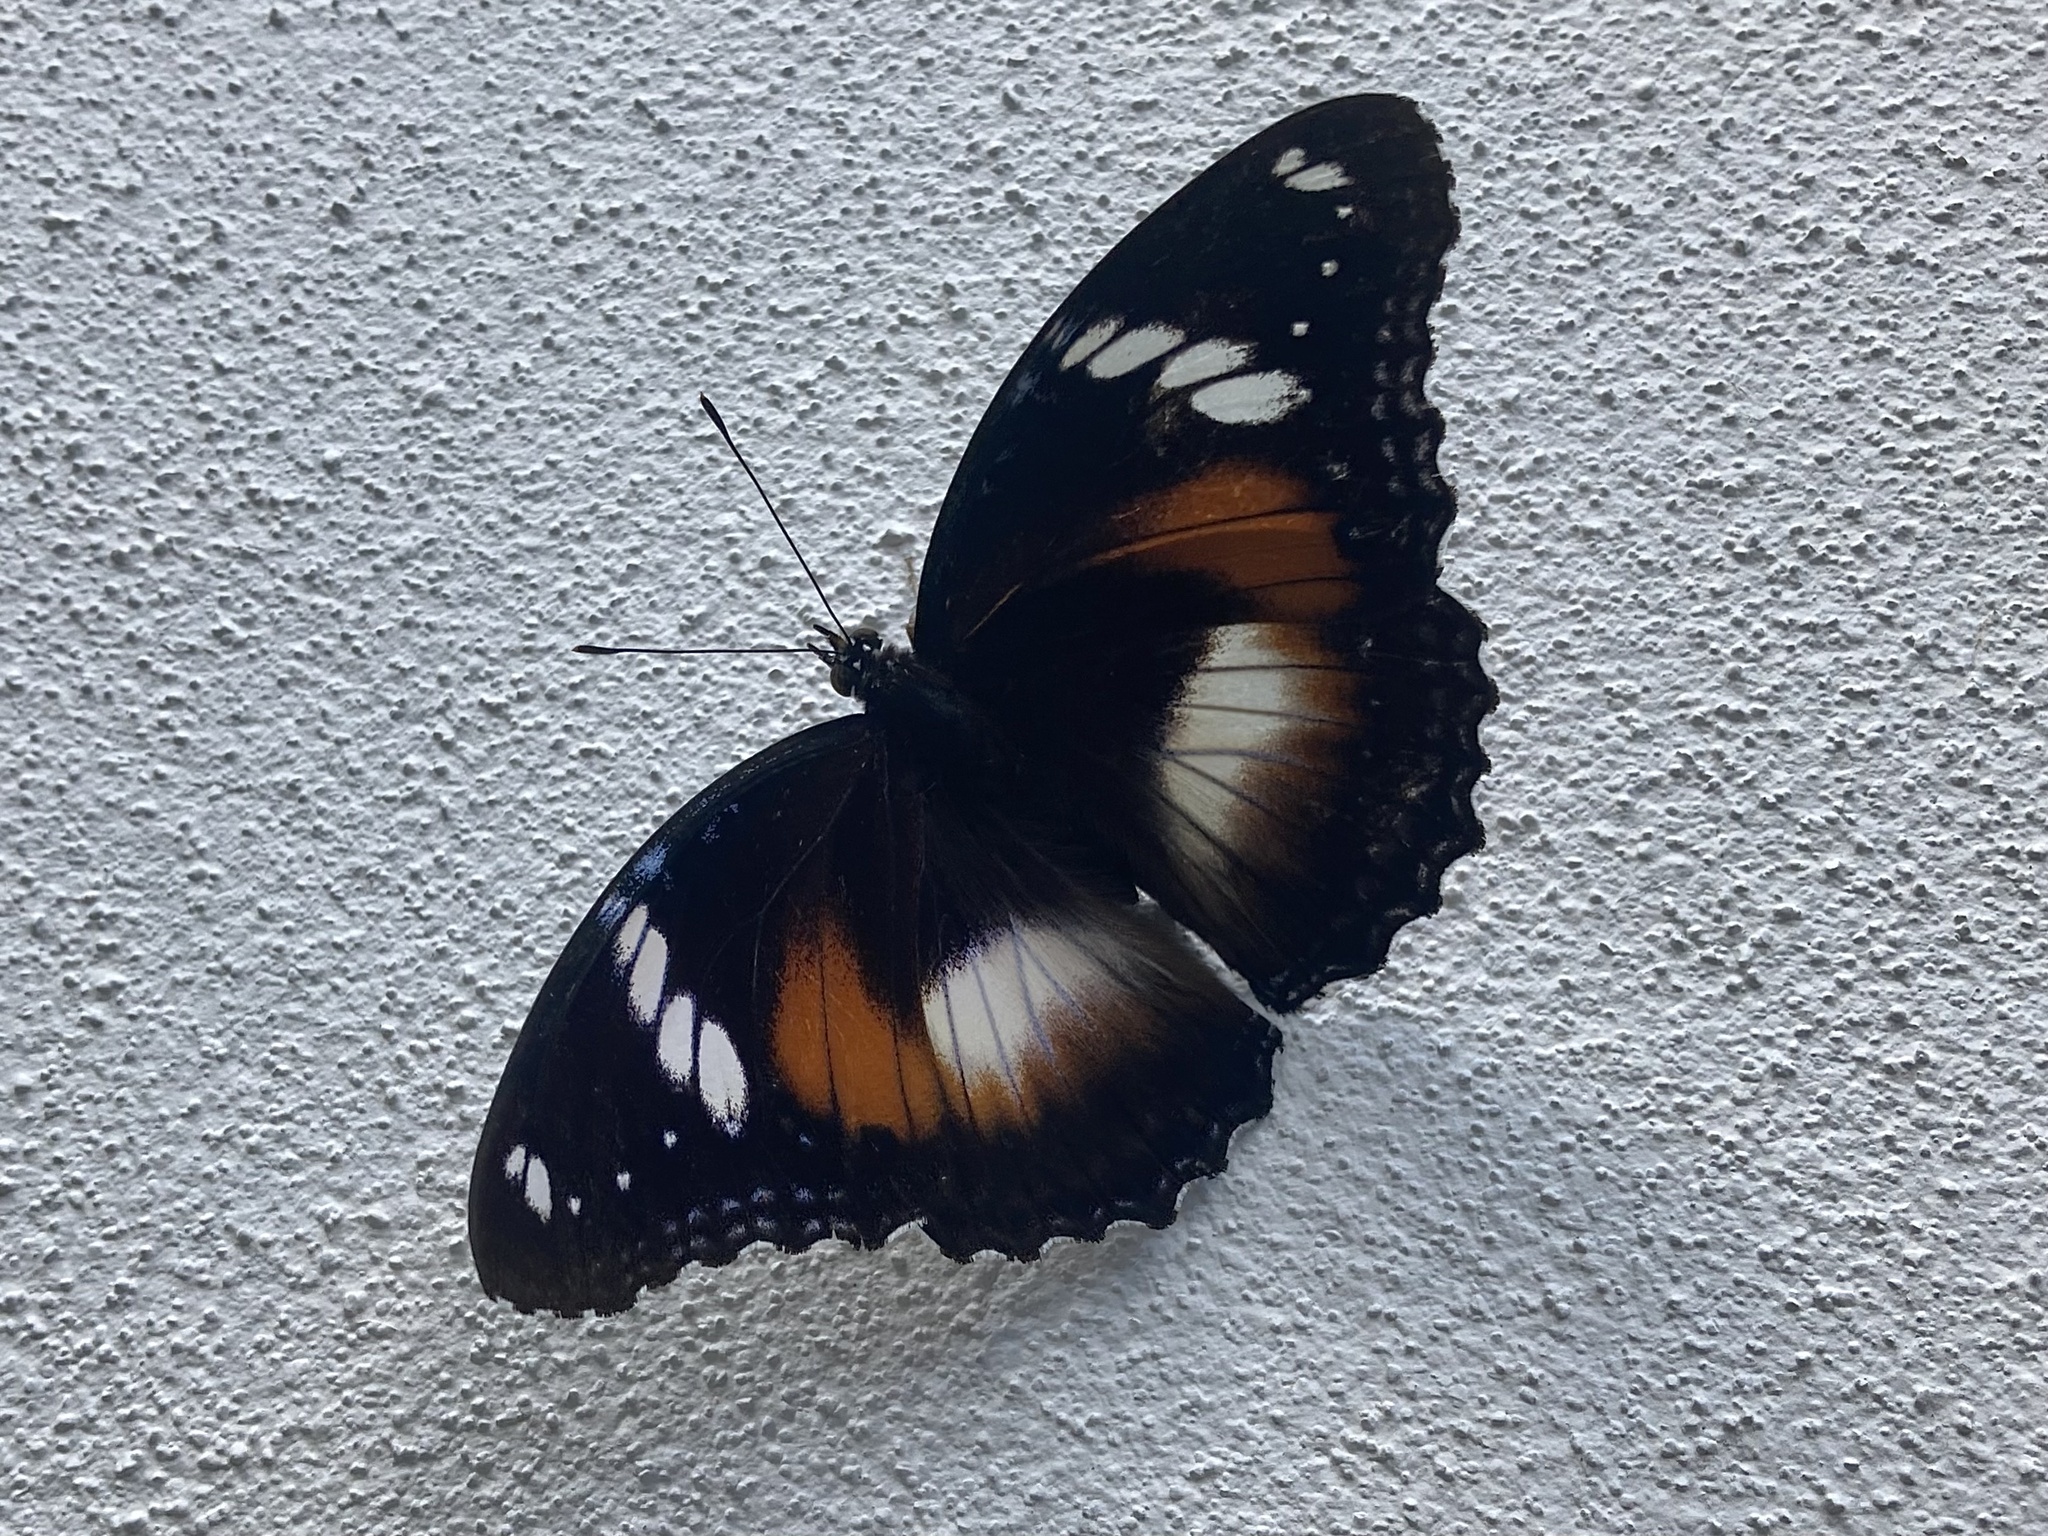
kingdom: Animalia
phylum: Arthropoda
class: Insecta
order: Lepidoptera
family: Nymphalidae
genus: Hypolimnas
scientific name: Hypolimnas bolina
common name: Great eggfly
